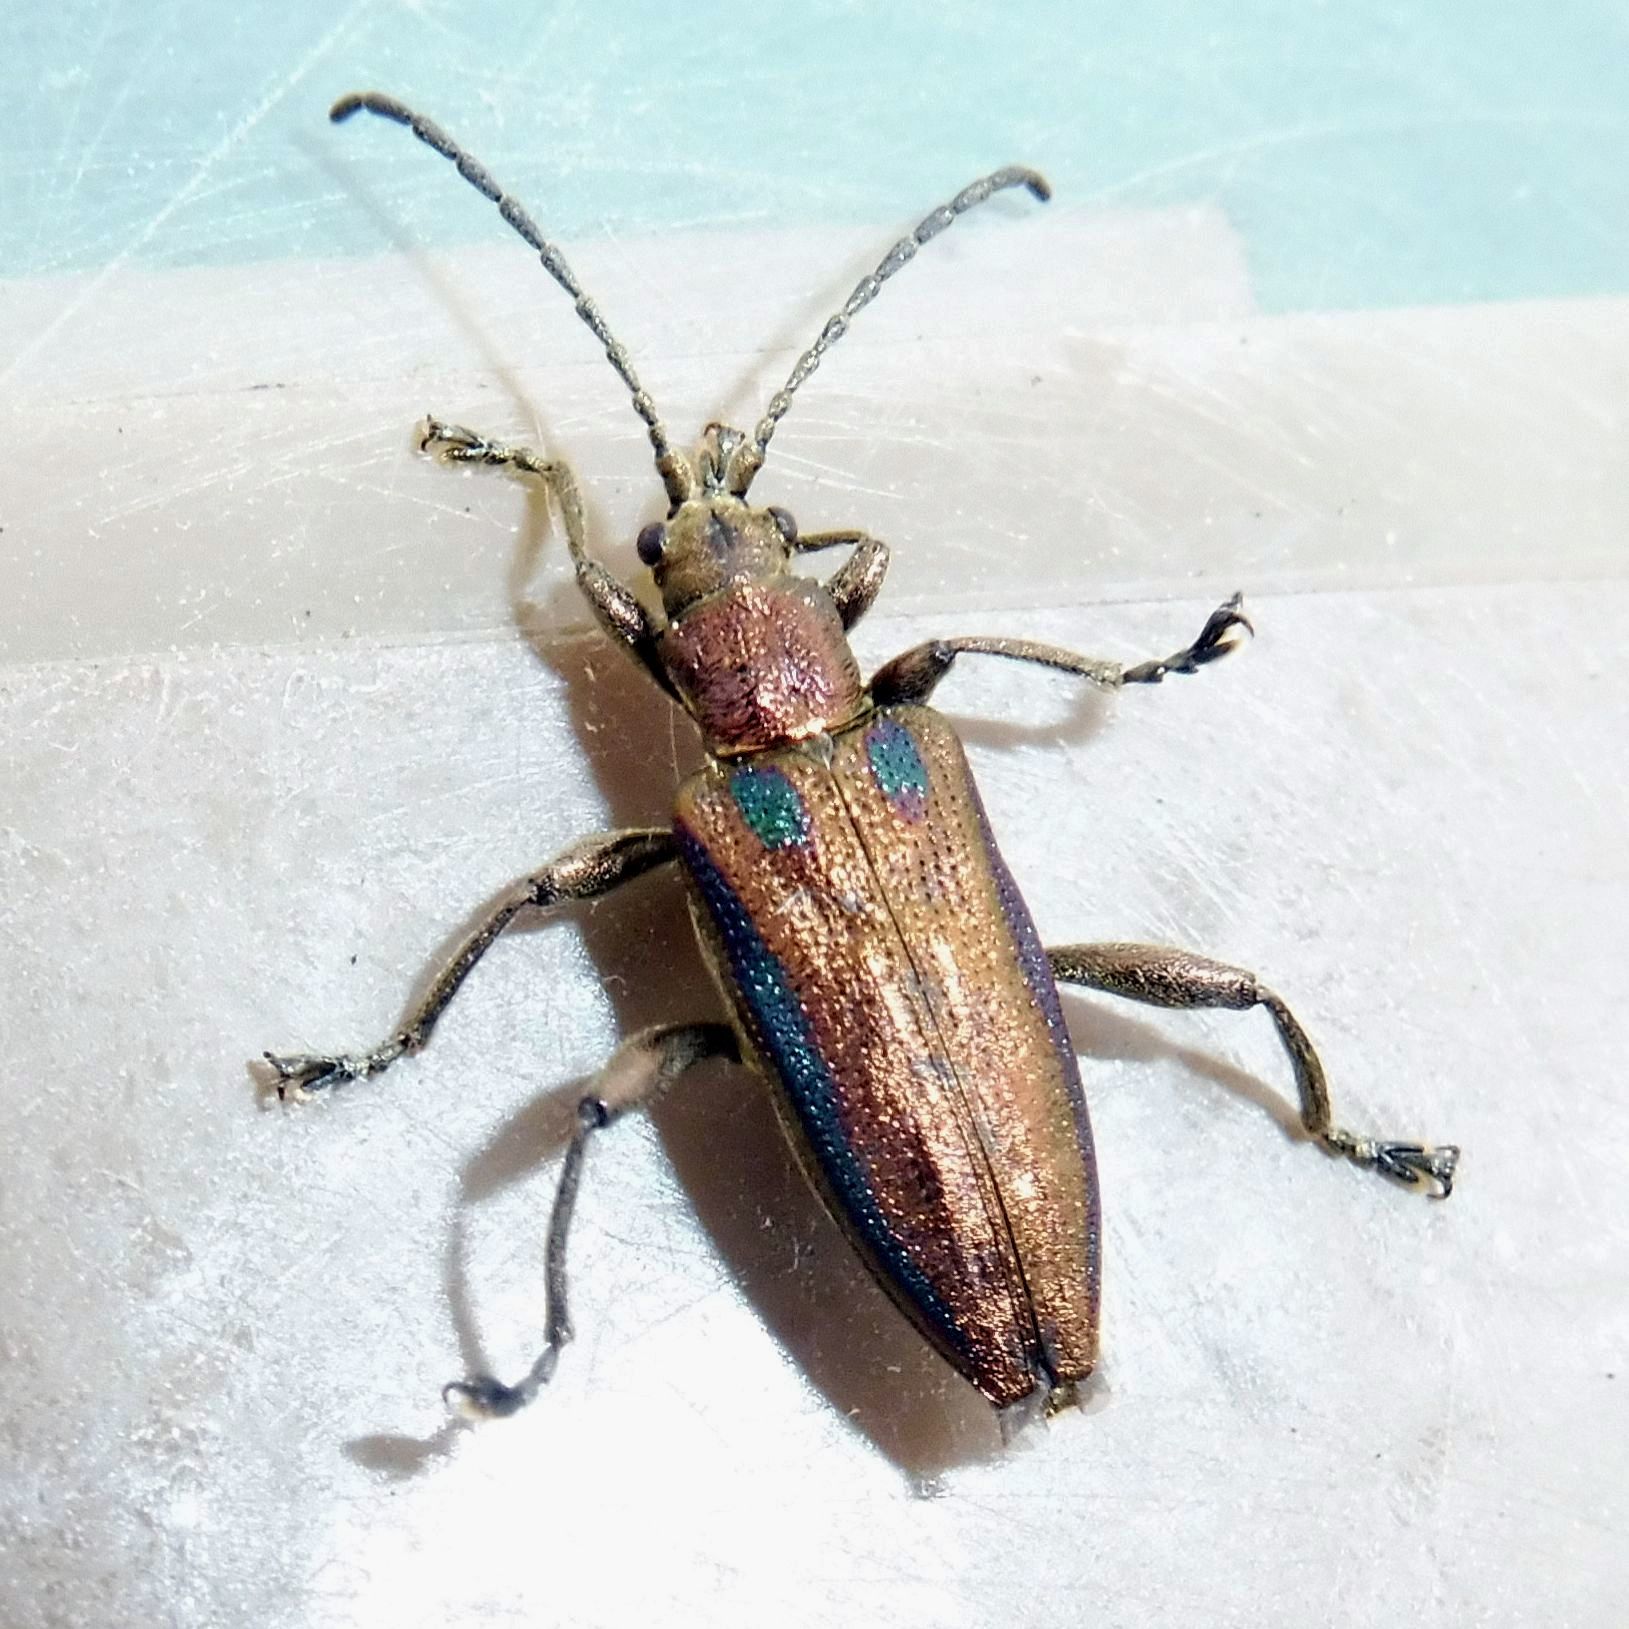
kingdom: Animalia
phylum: Arthropoda
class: Insecta
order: Coleoptera
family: Chrysomelidae
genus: Donacia
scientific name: Donacia marginata
